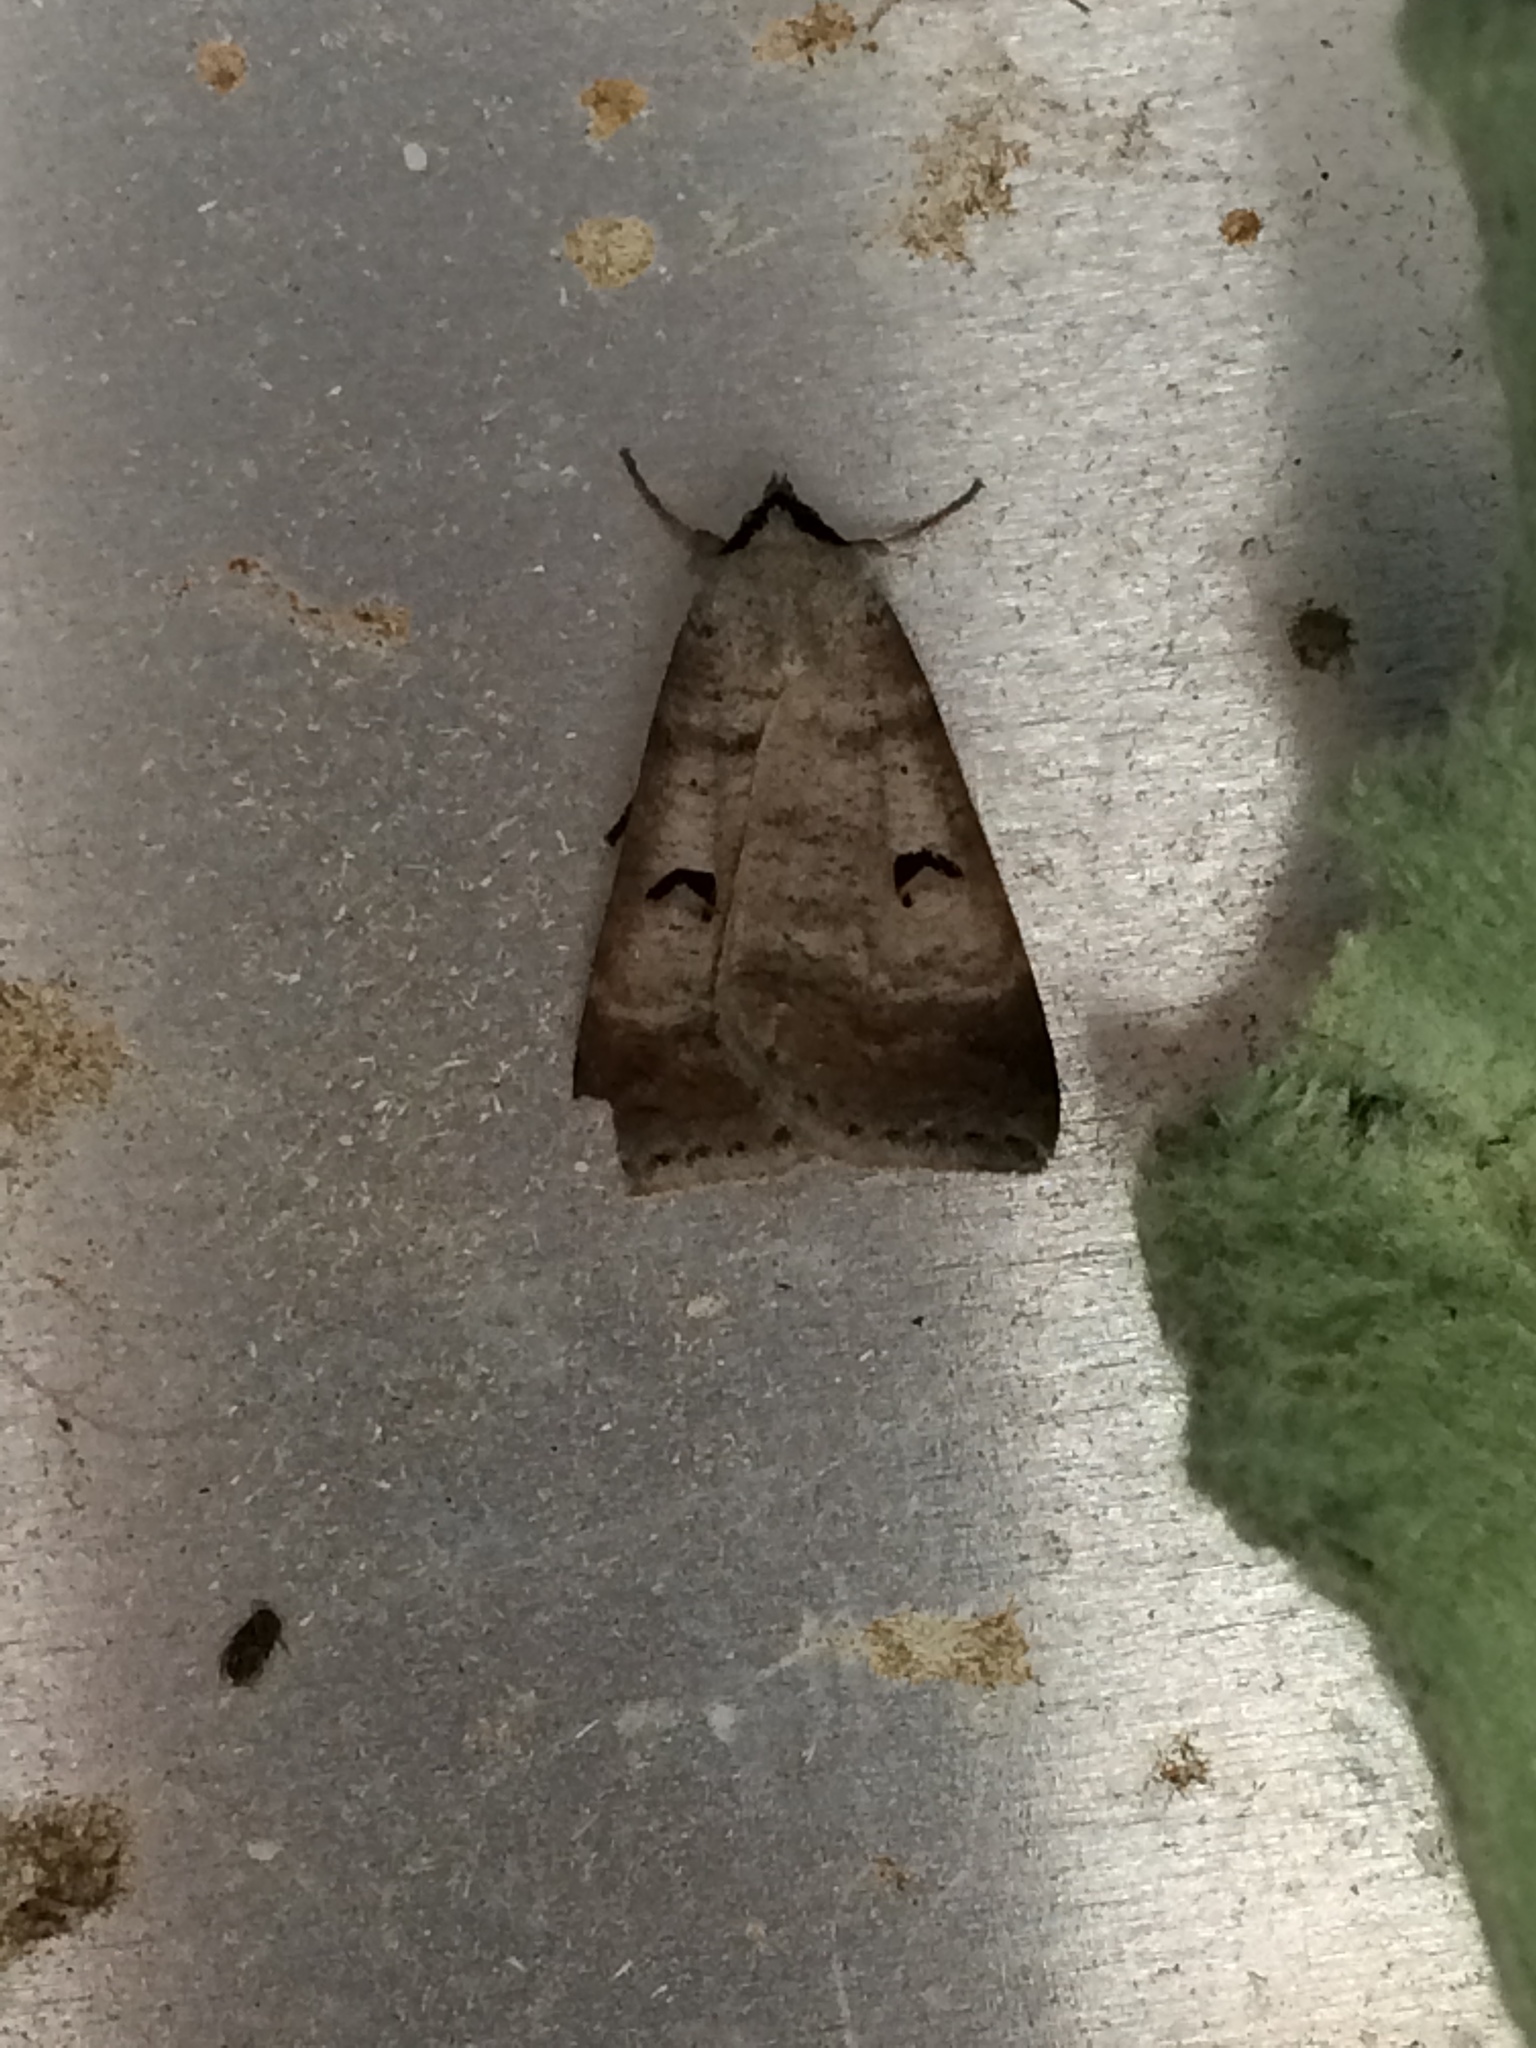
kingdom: Animalia
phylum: Arthropoda
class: Insecta
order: Lepidoptera
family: Erebidae
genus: Lygephila
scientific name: Lygephila pastinum
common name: Blackneck
